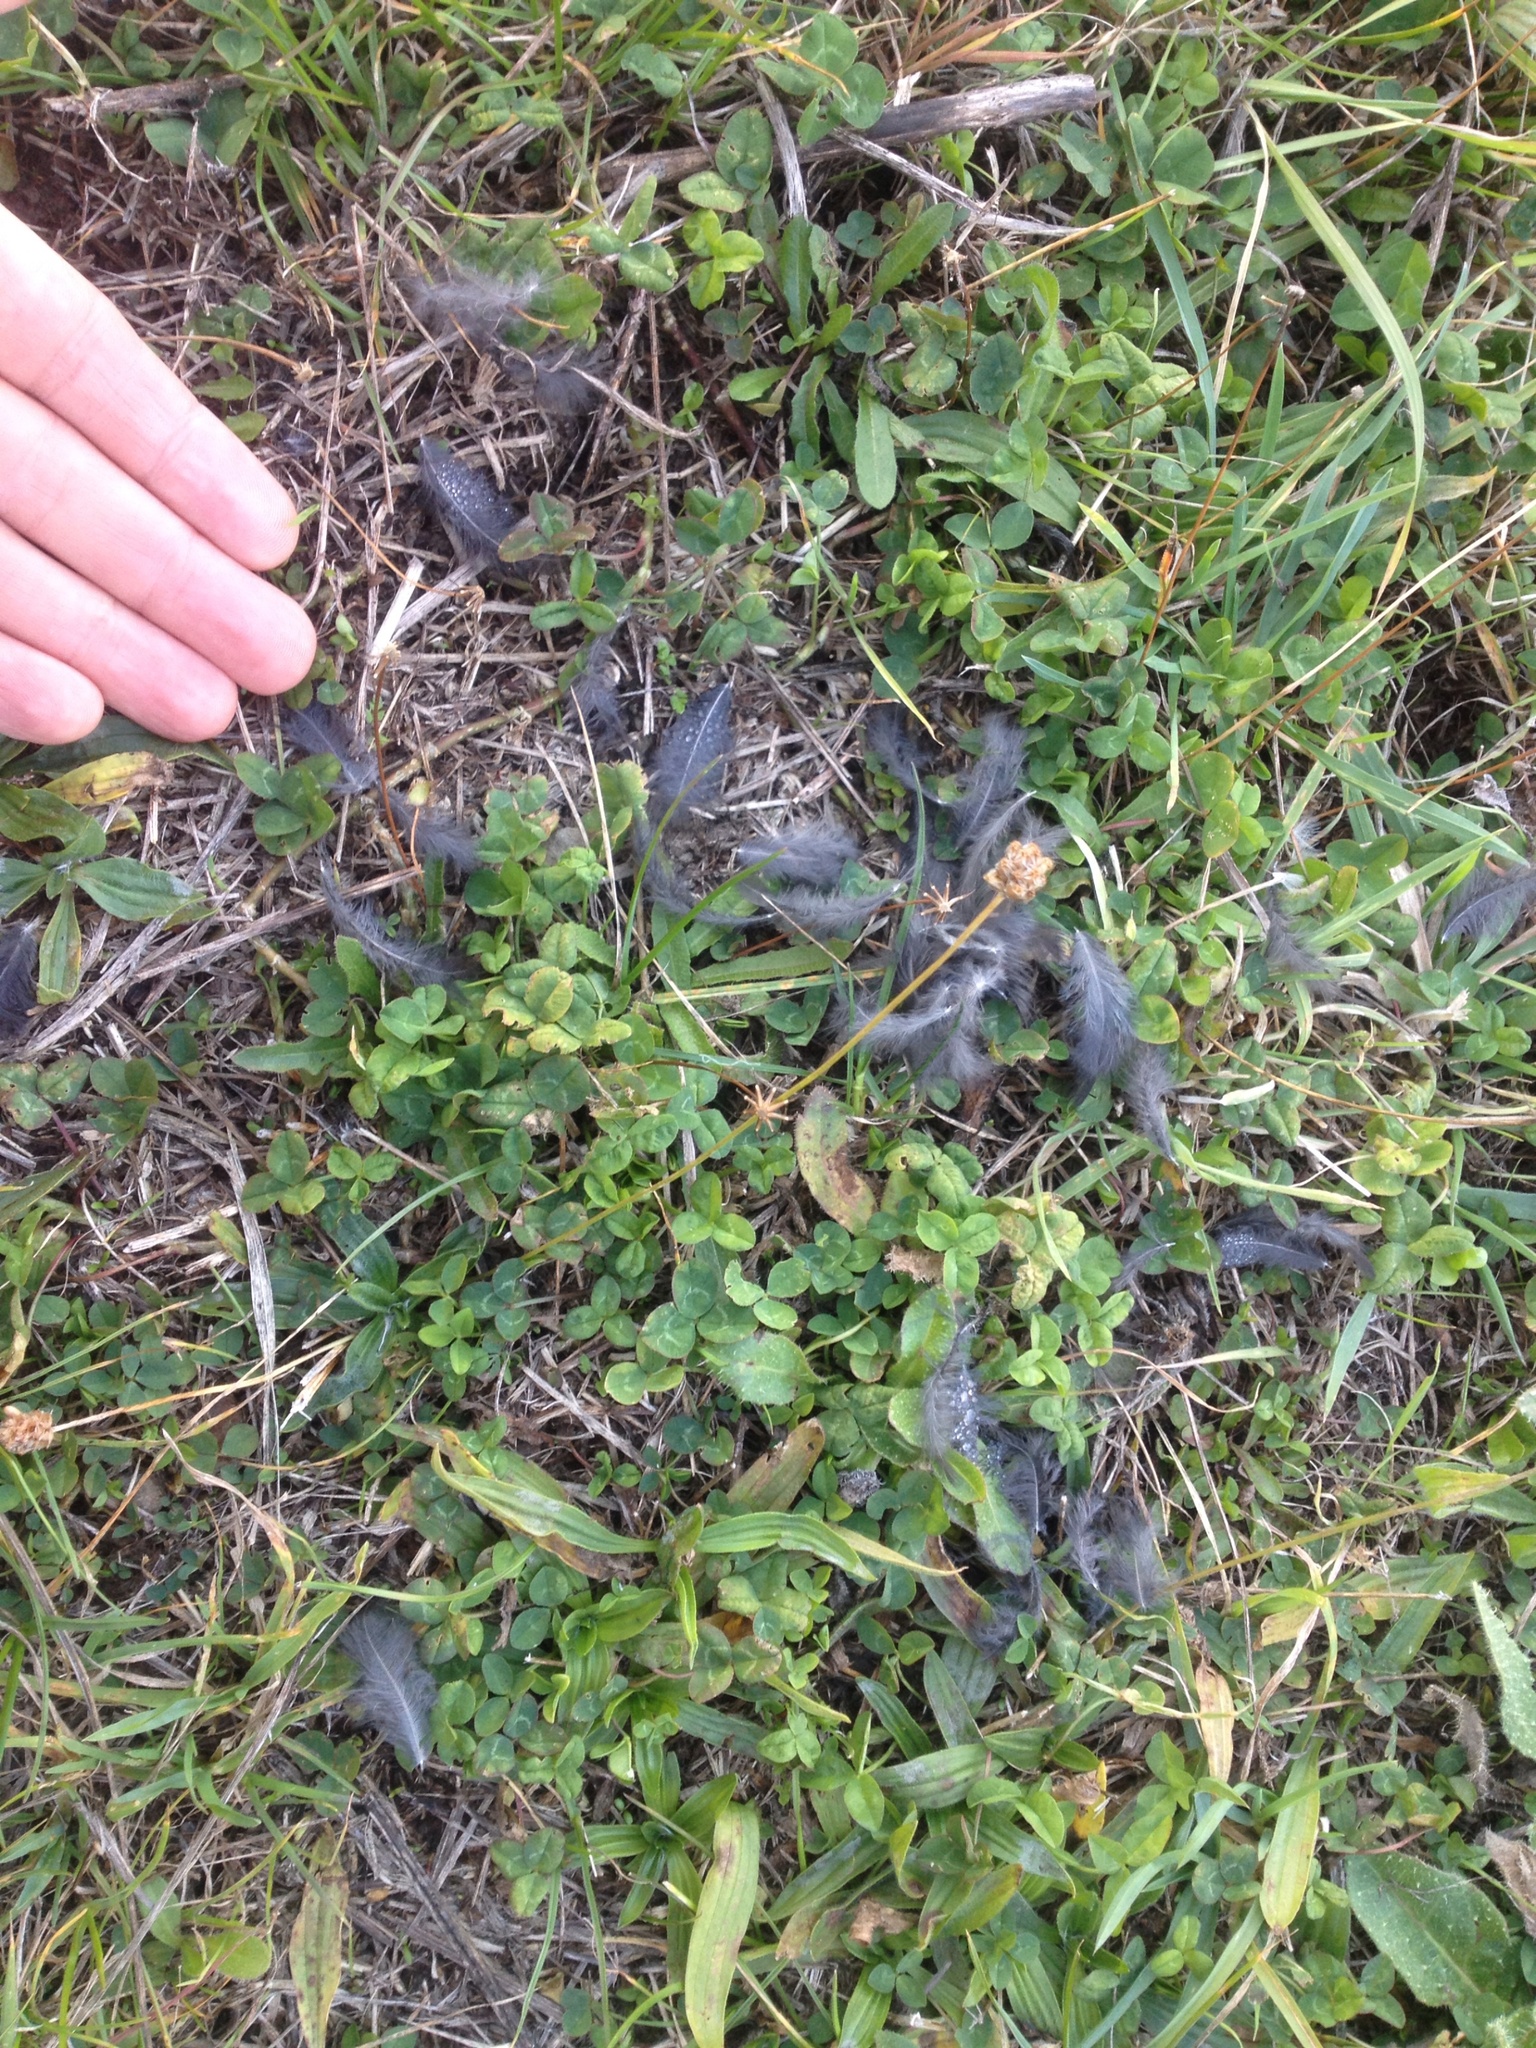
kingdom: Animalia
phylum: Chordata
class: Aves
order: Passeriformes
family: Turdidae
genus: Turdus
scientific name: Turdus merula
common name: Common blackbird
